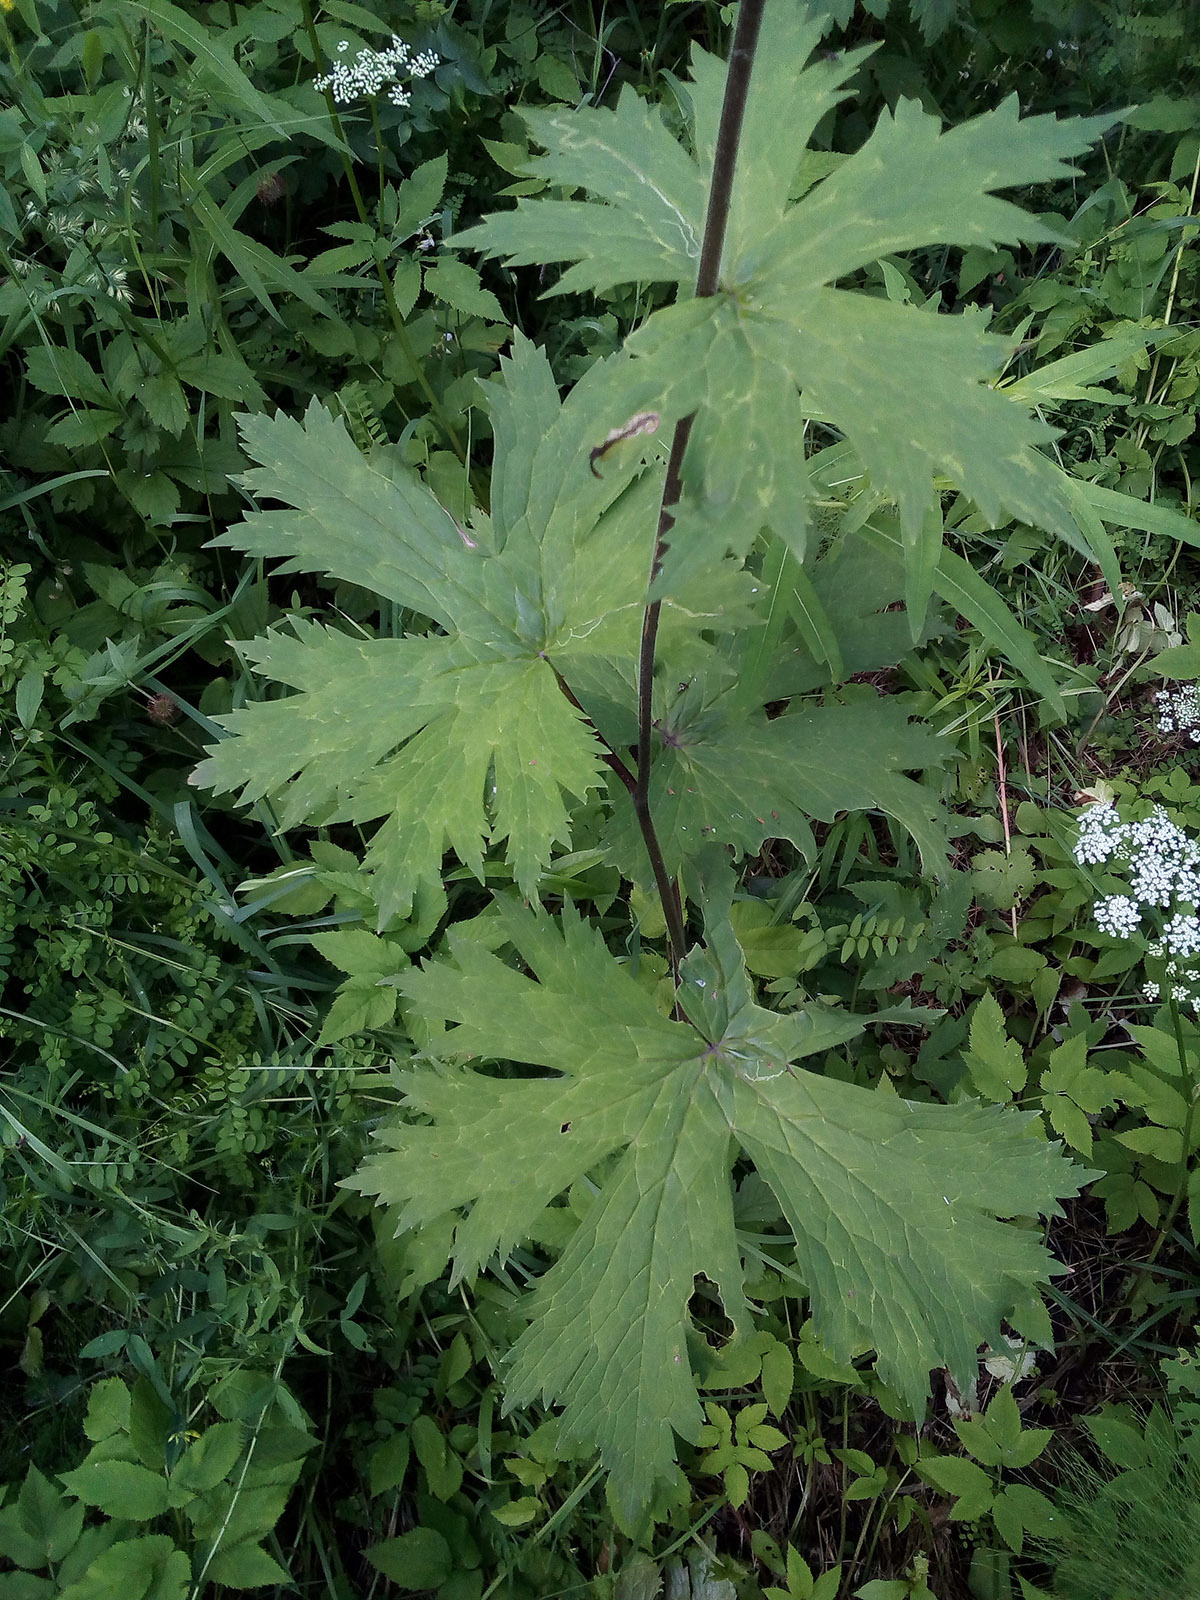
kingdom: Plantae
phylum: Tracheophyta
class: Magnoliopsida
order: Ranunculales
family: Ranunculaceae
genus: Aconitum
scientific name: Aconitum septentrionale
